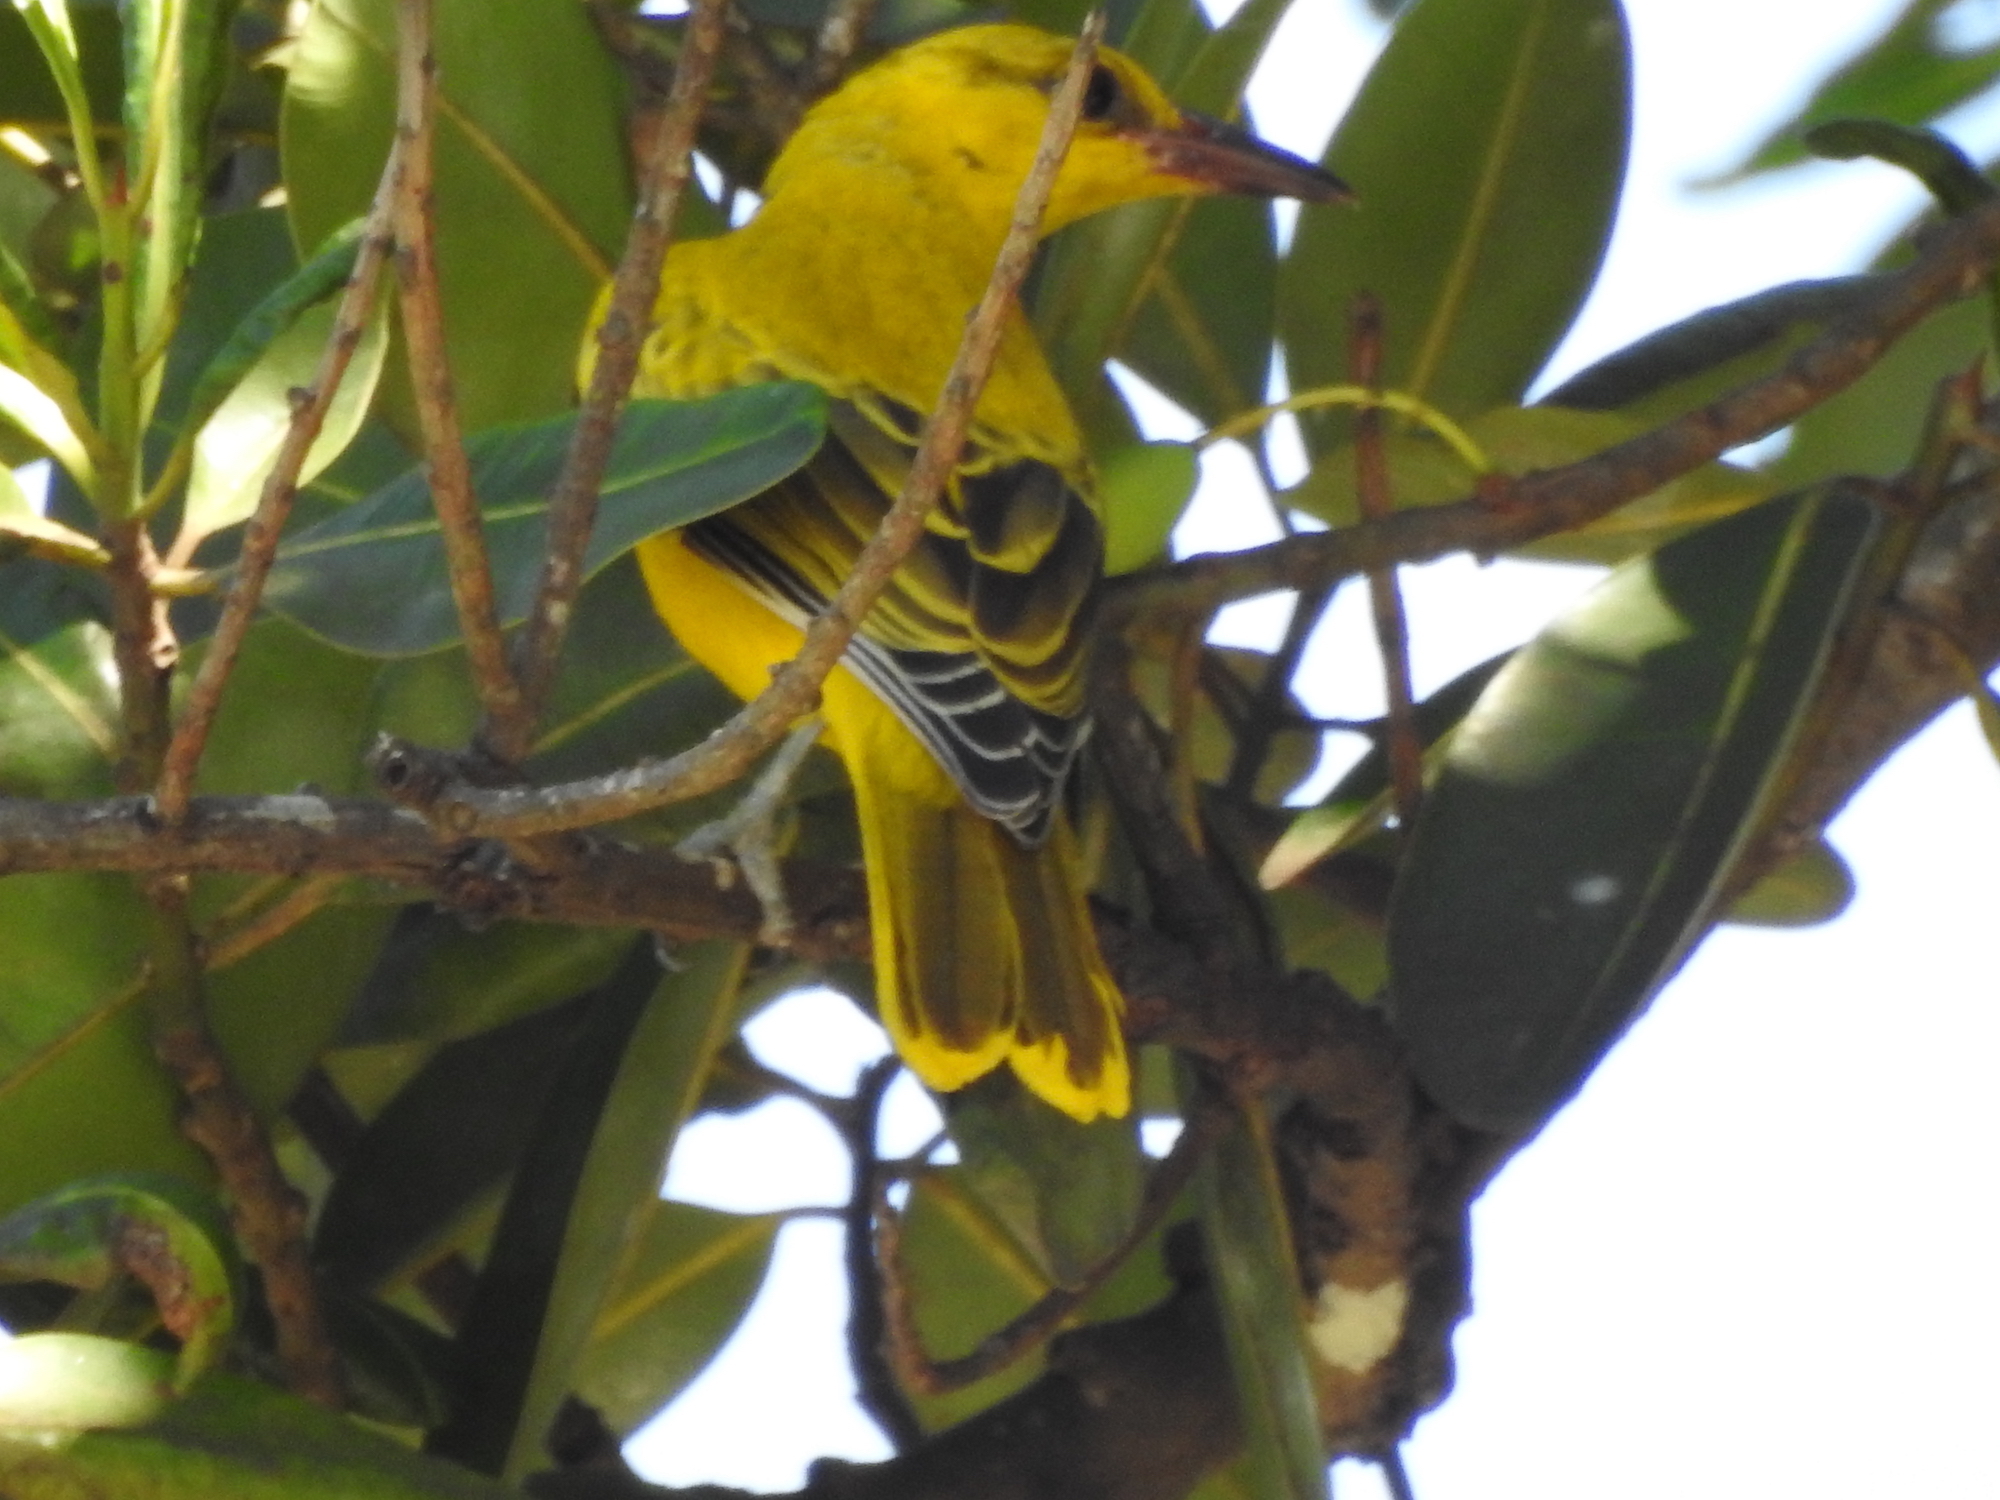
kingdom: Animalia
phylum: Chordata
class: Aves
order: Passeriformes
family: Oriolidae
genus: Oriolus
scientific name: Oriolus chinensis
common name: Black-naped oriole
